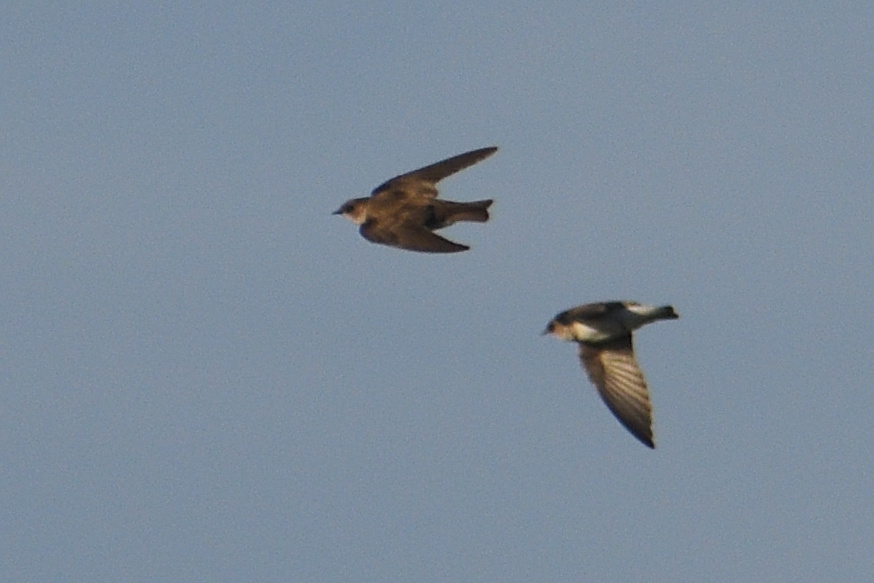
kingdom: Animalia
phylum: Chordata
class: Aves
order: Passeriformes
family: Hirundinidae
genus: Stelgidopteryx
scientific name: Stelgidopteryx serripennis
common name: Northern rough-winged swallow
